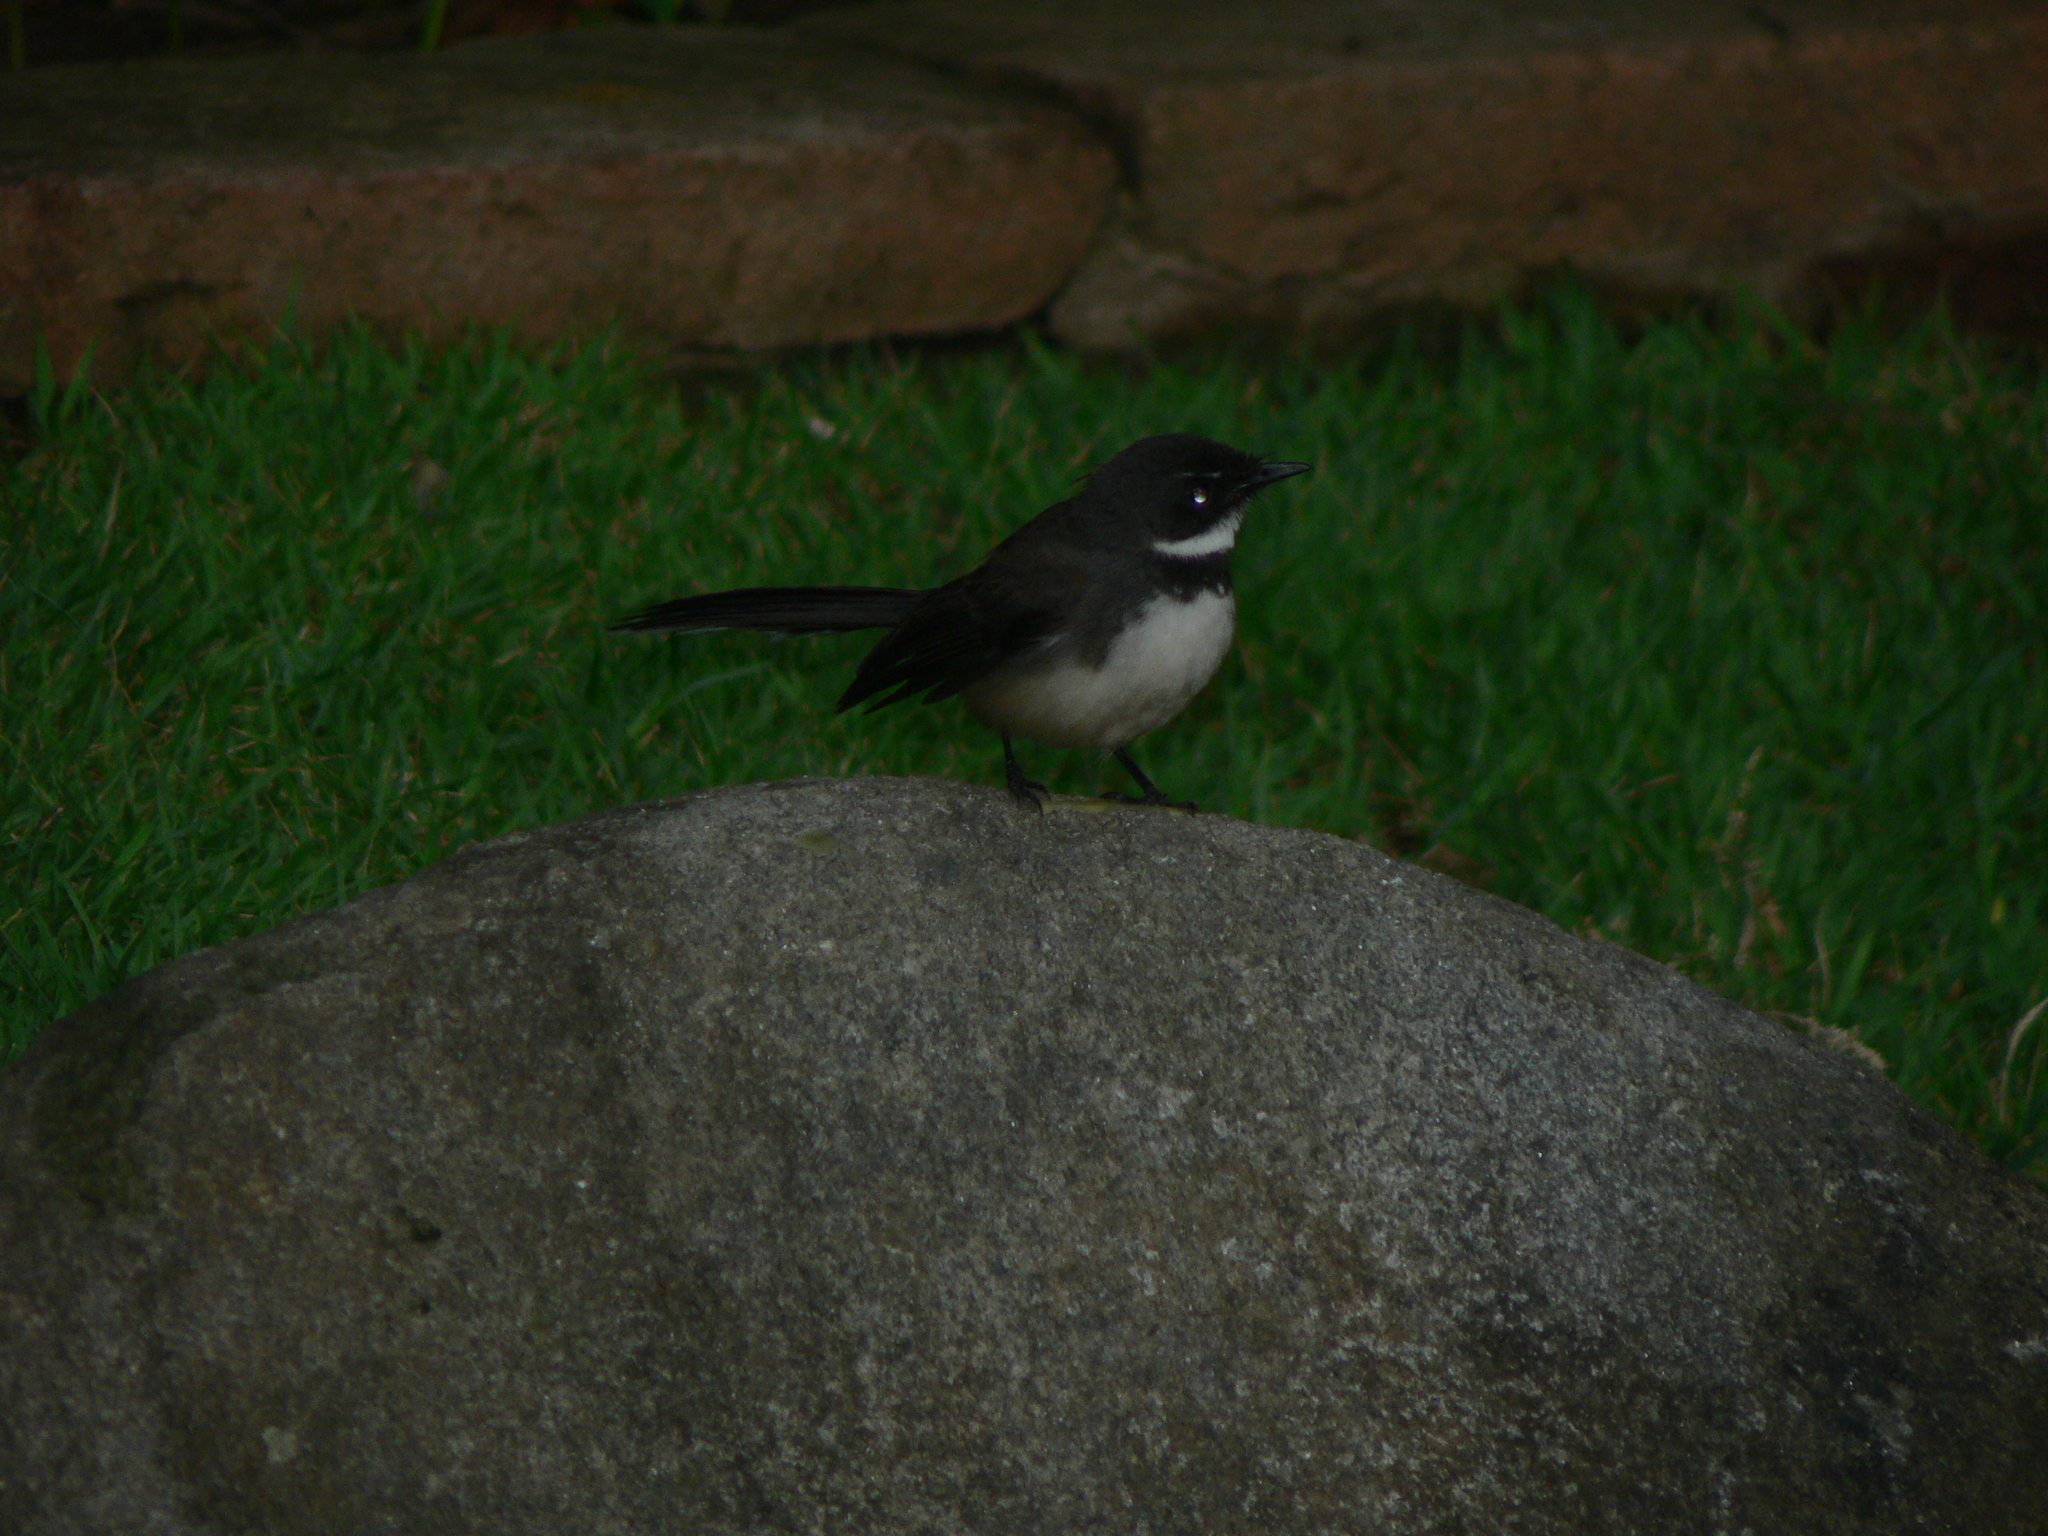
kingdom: Animalia
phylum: Chordata
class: Aves
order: Passeriformes
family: Rhipiduridae
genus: Rhipidura
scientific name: Rhipidura javanica
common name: Pied fantail
